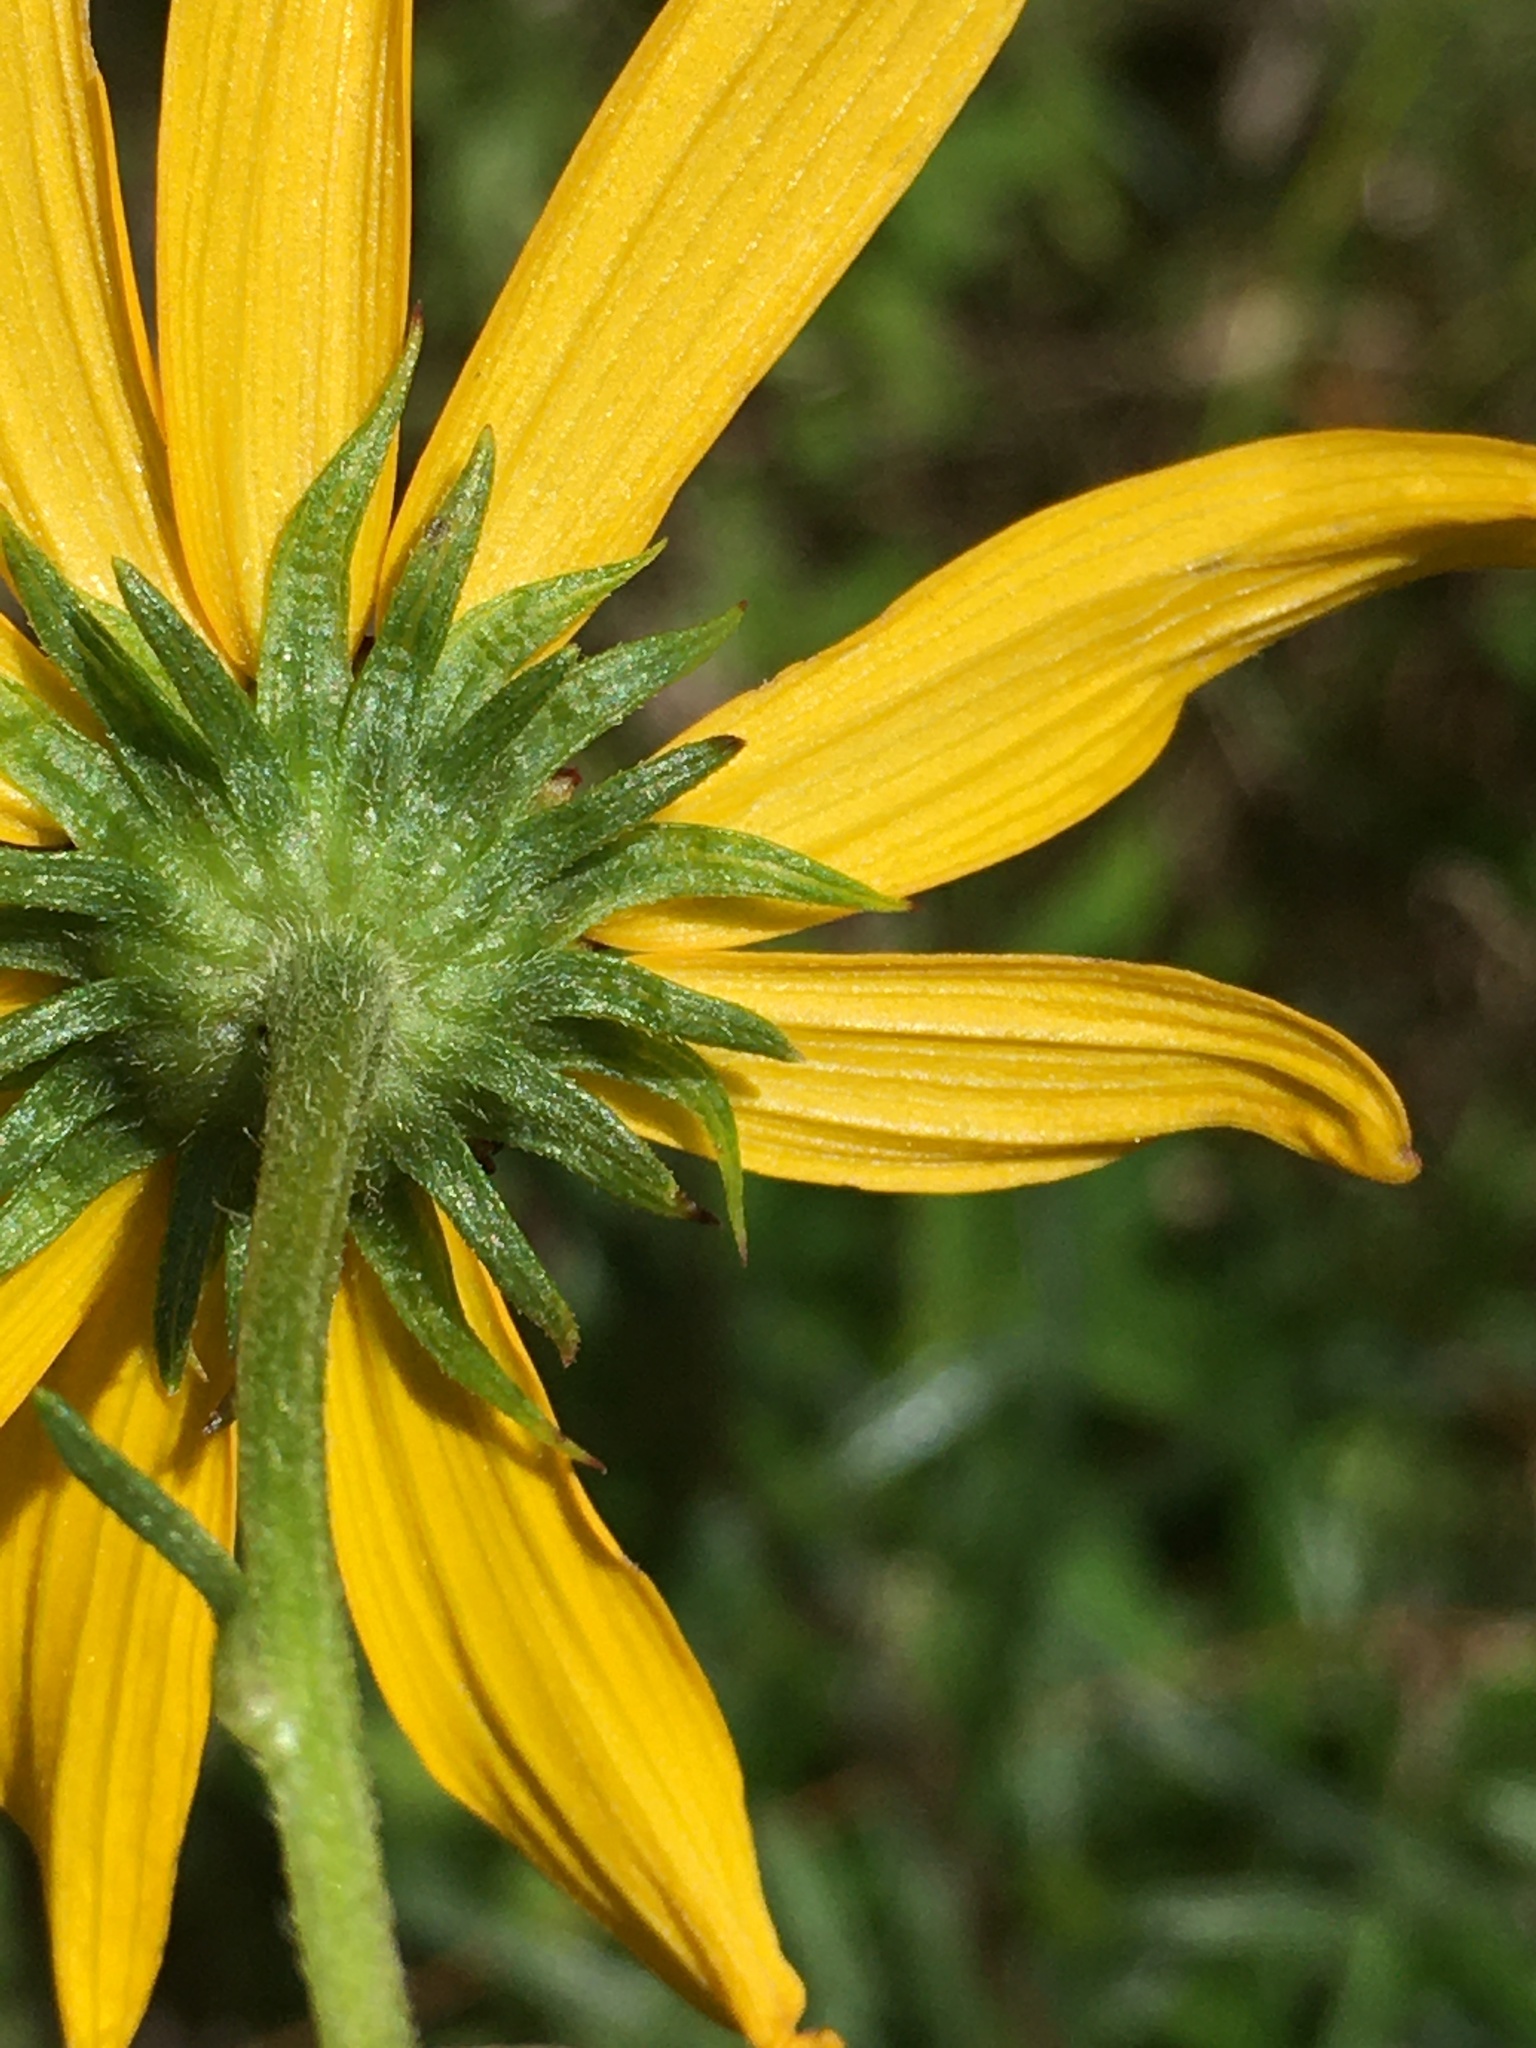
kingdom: Plantae
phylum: Tracheophyta
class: Magnoliopsida
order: Asterales
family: Asteraceae
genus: Helianthus
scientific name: Helianthus angustifolius
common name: Swamp sunflower
